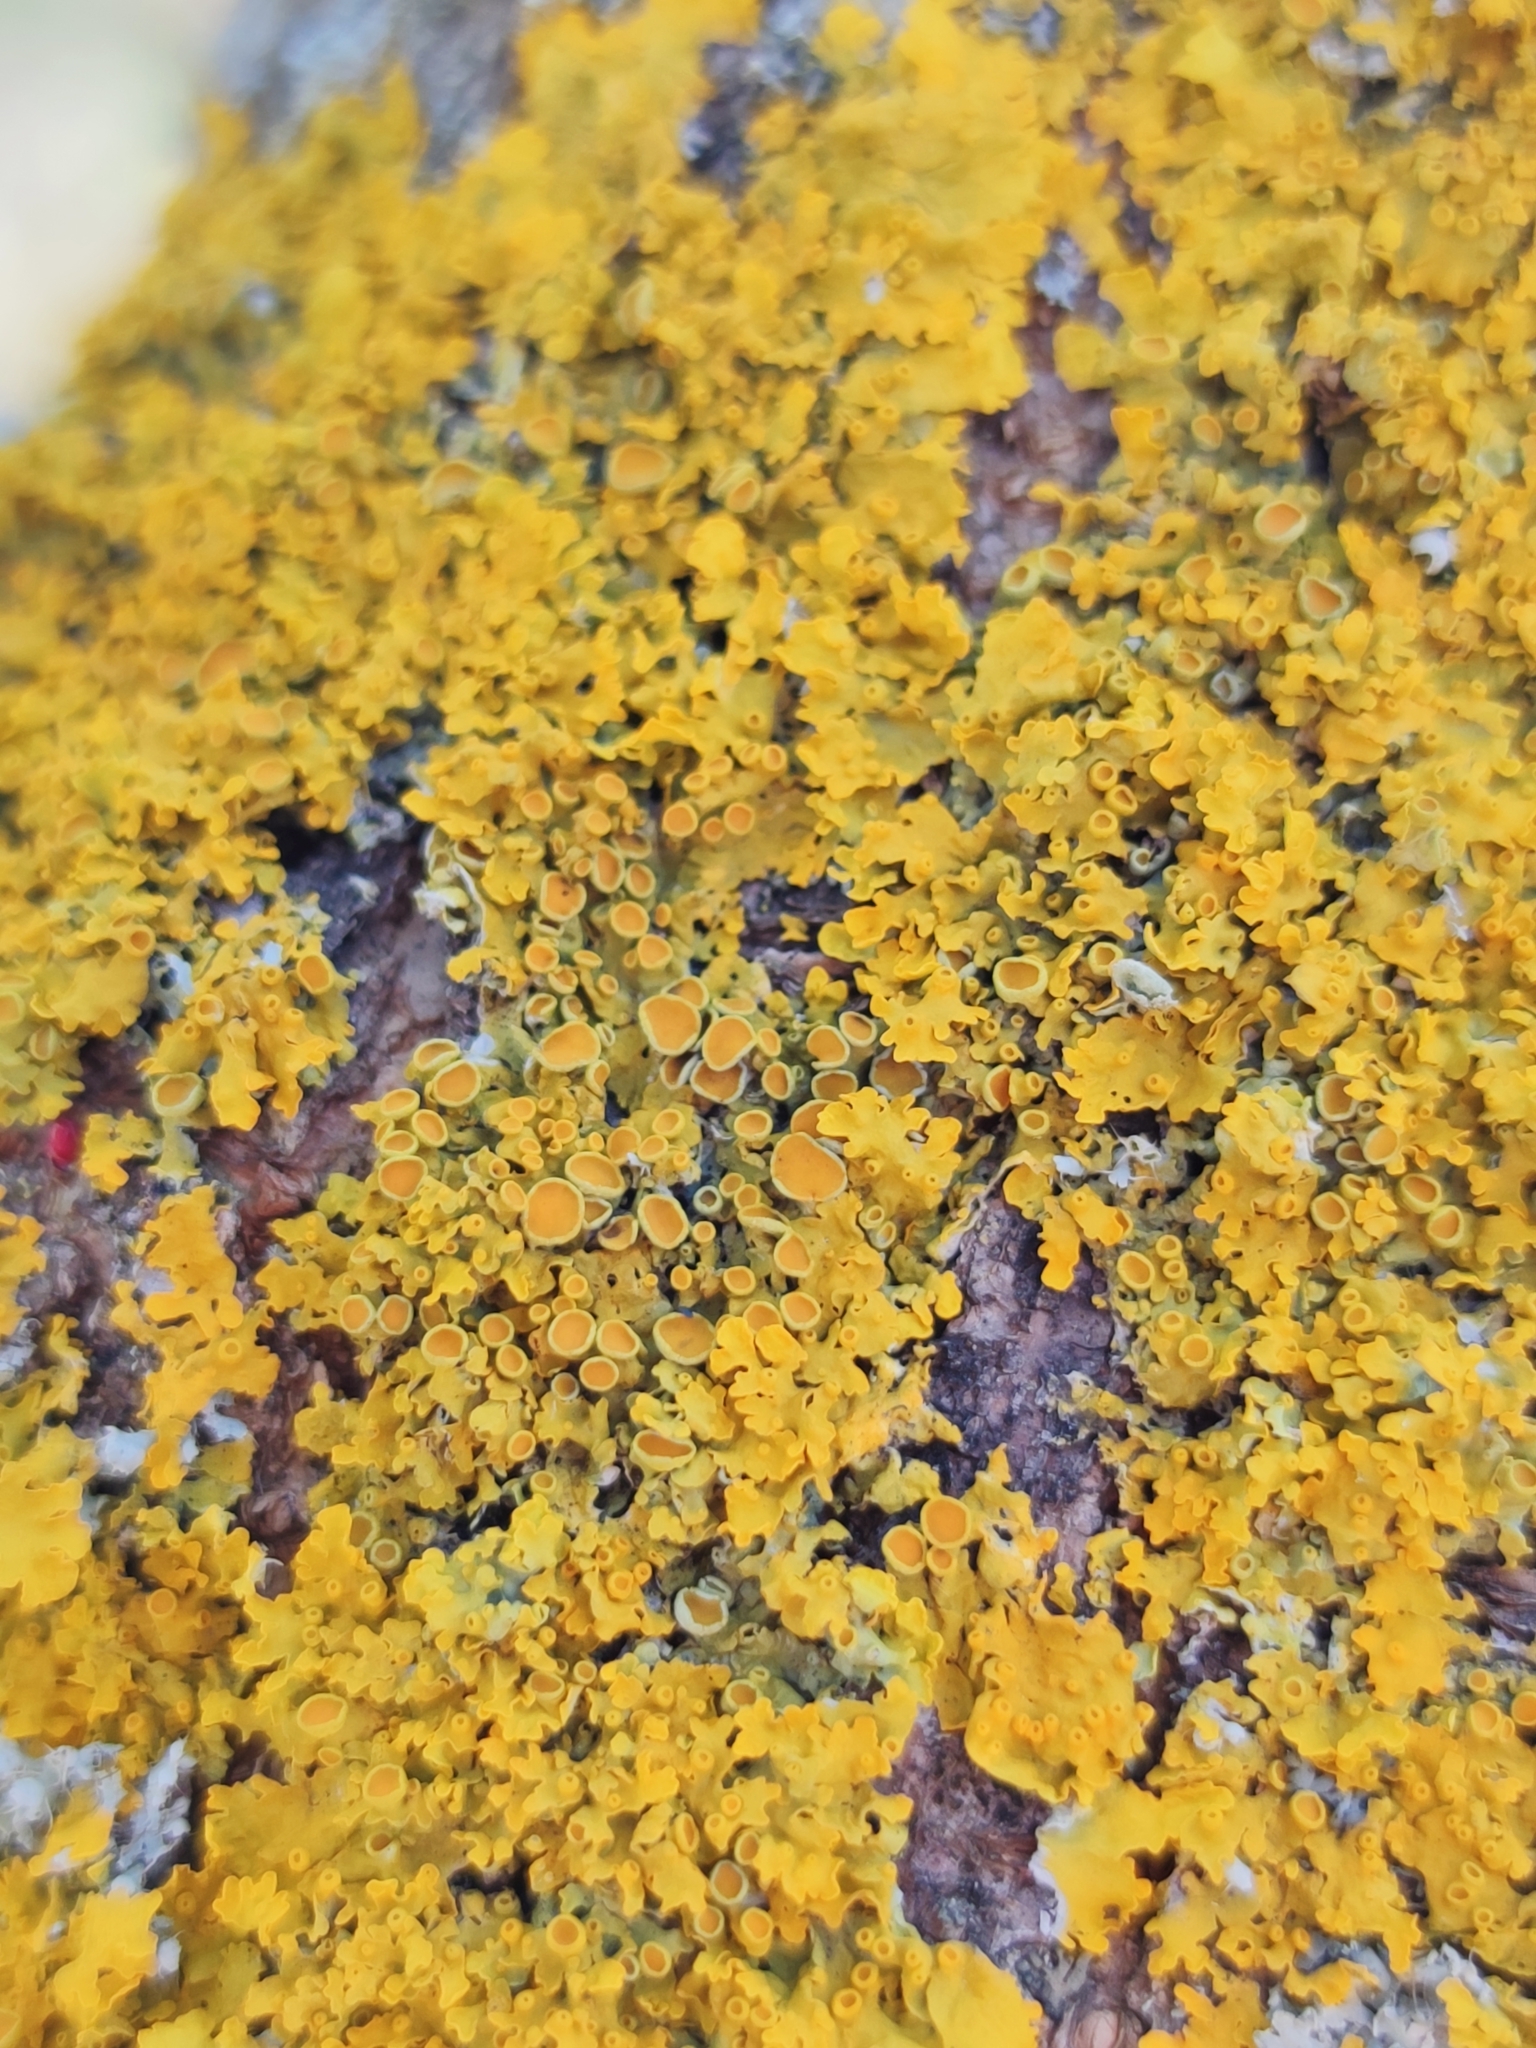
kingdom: Fungi
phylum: Ascomycota
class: Lecanoromycetes
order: Teloschistales
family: Teloschistaceae
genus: Xanthoria
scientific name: Xanthoria parietina
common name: Common orange lichen
